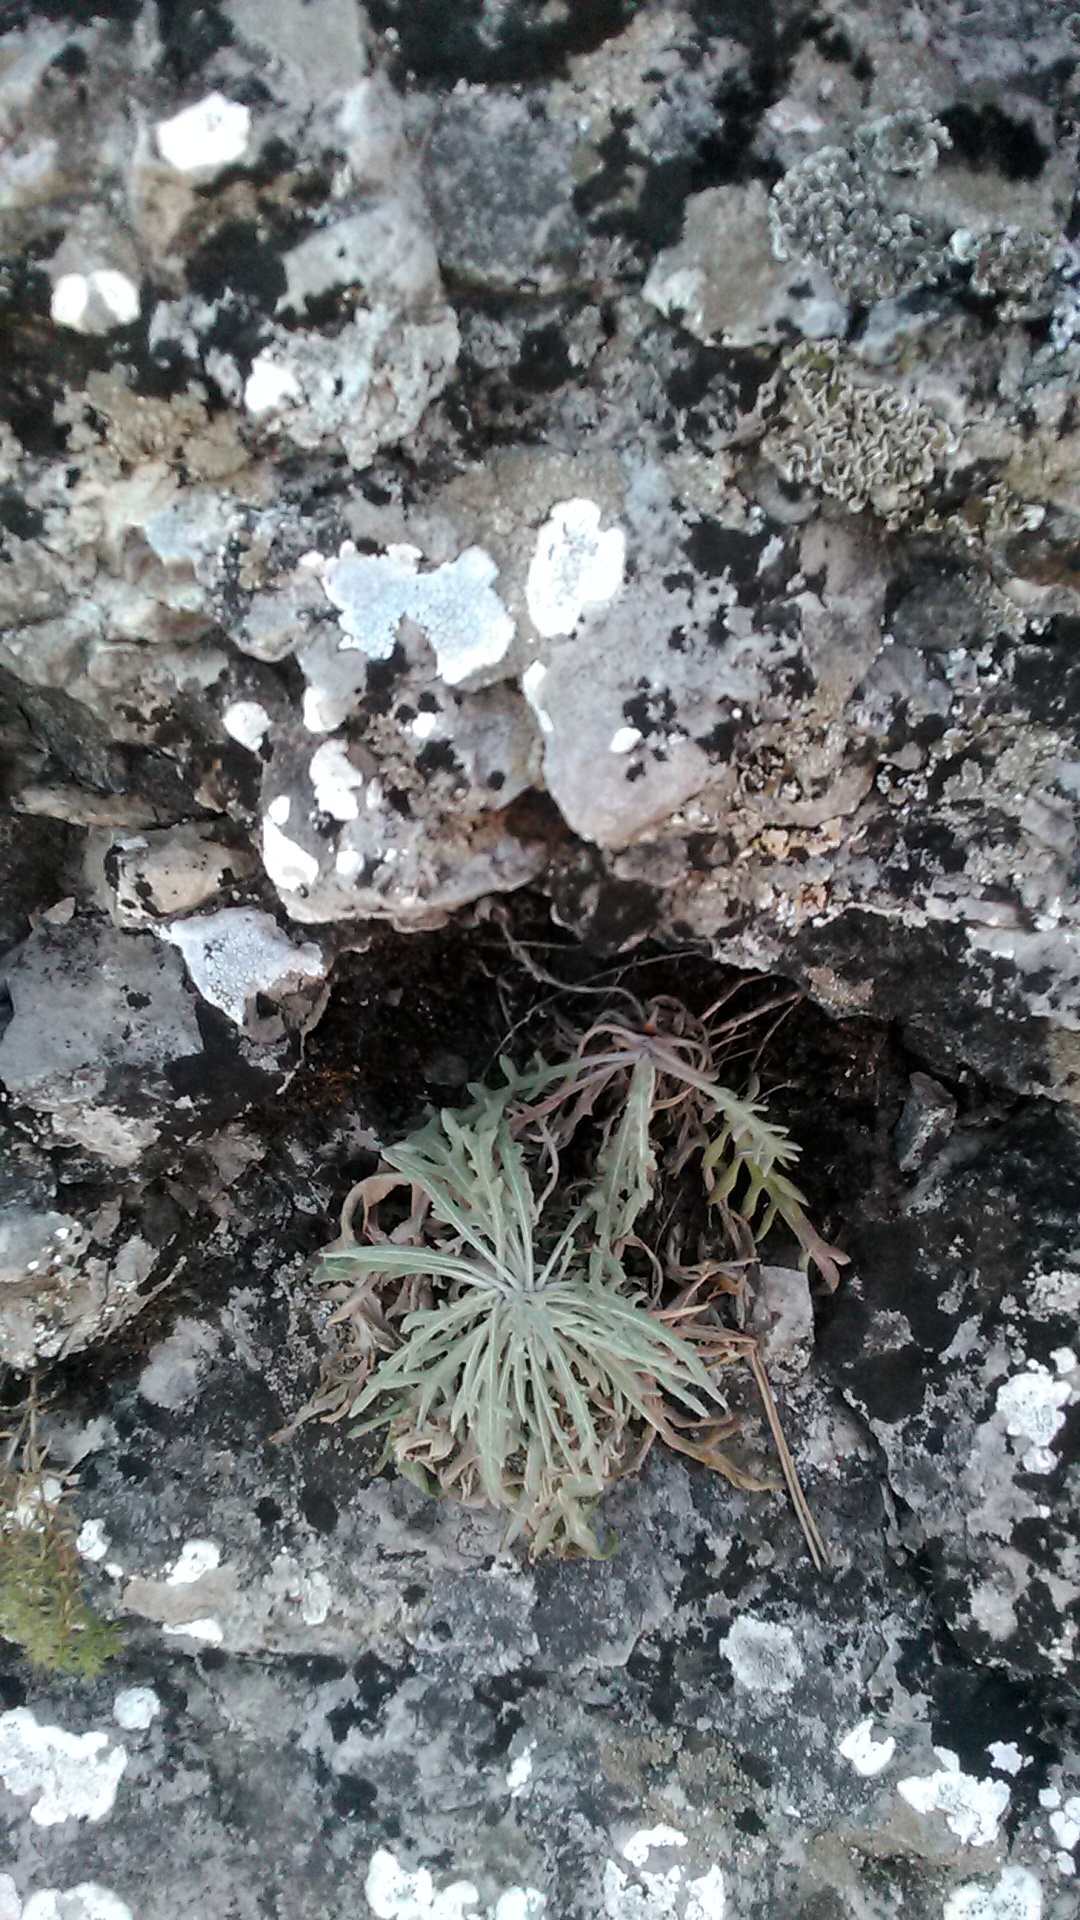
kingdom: Plantae
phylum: Tracheophyta
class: Magnoliopsida
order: Asterales
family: Asteraceae
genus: Jurinea
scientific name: Jurinea roegneri
